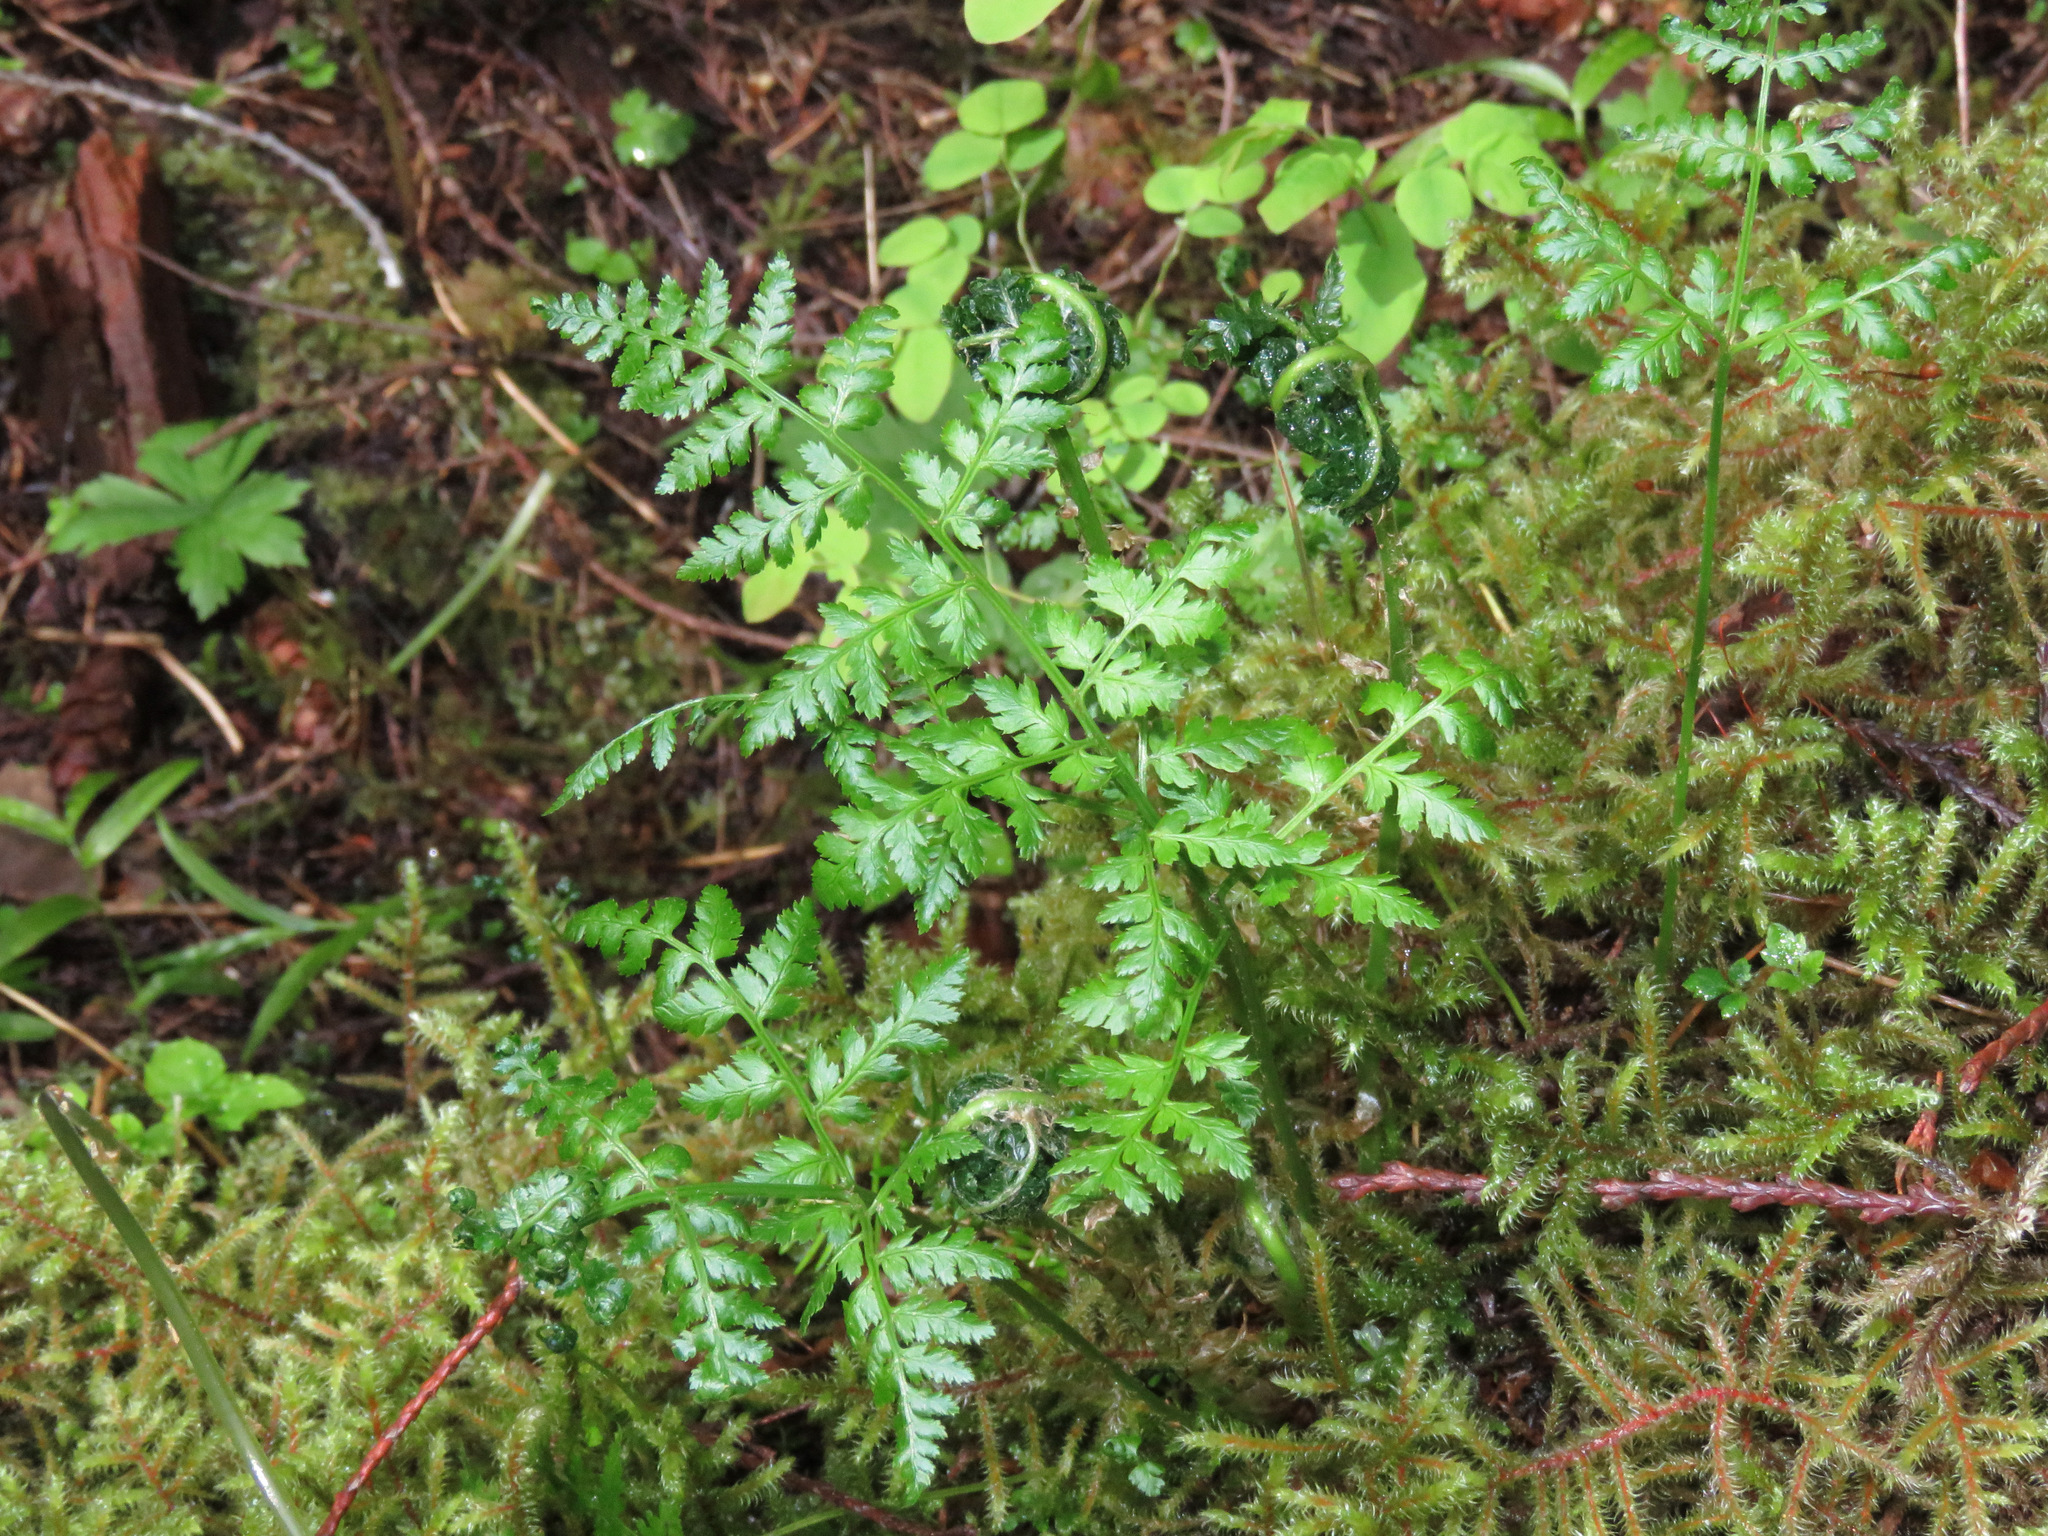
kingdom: Plantae
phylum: Tracheophyta
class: Polypodiopsida
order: Polypodiales
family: Dryopteridaceae
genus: Dryopteris
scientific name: Dryopteris expansa
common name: Northern buckler fern
